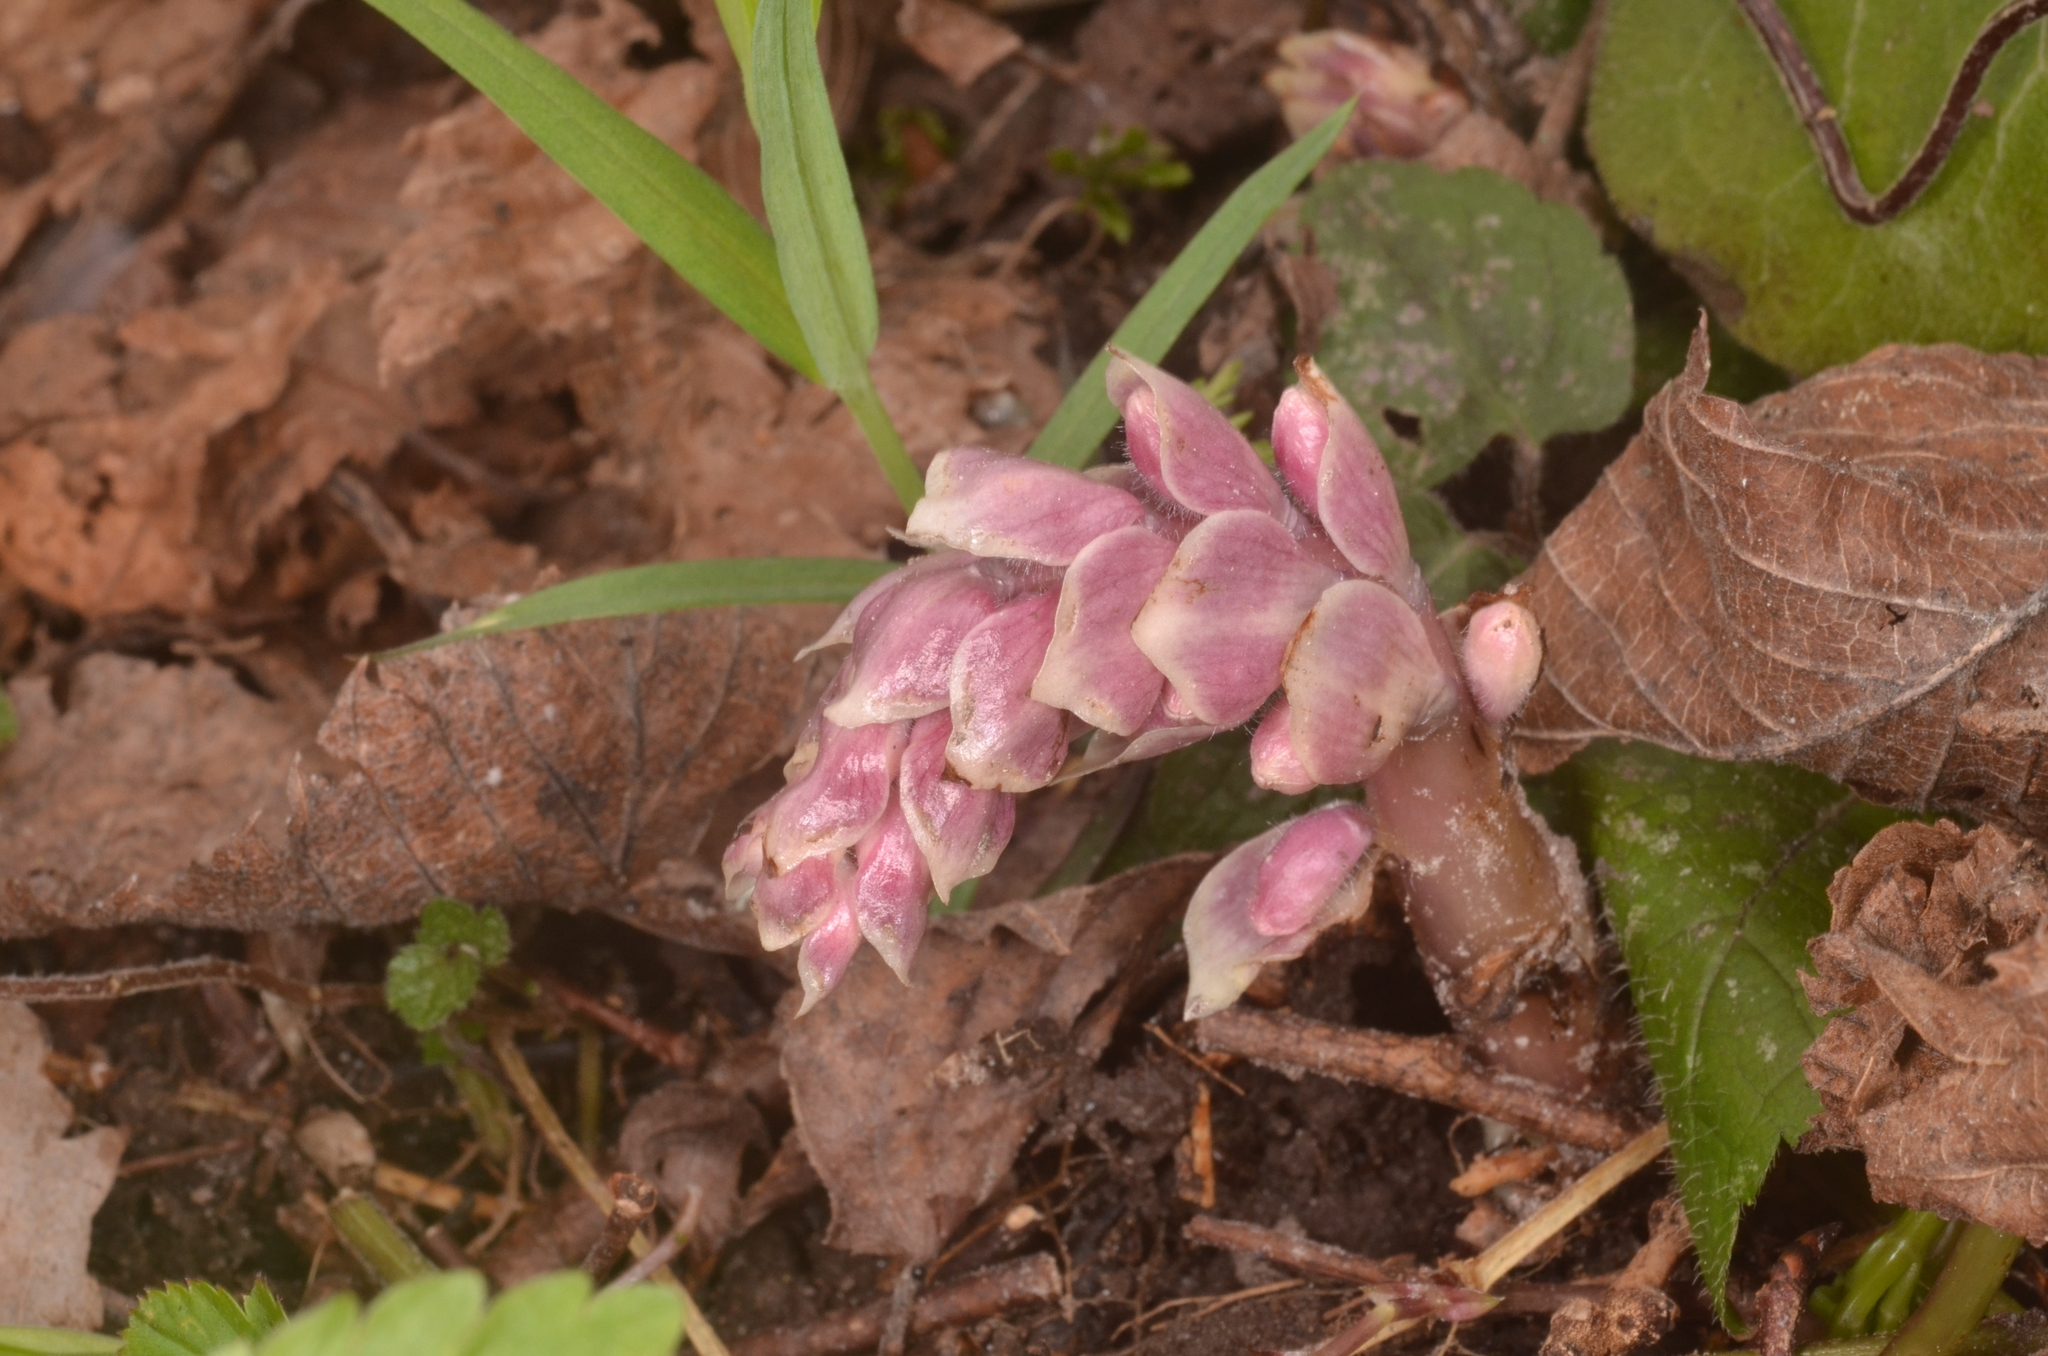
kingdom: Plantae
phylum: Tracheophyta
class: Magnoliopsida
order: Lamiales
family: Orobanchaceae
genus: Lathraea
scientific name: Lathraea squamaria
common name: Toothwort
